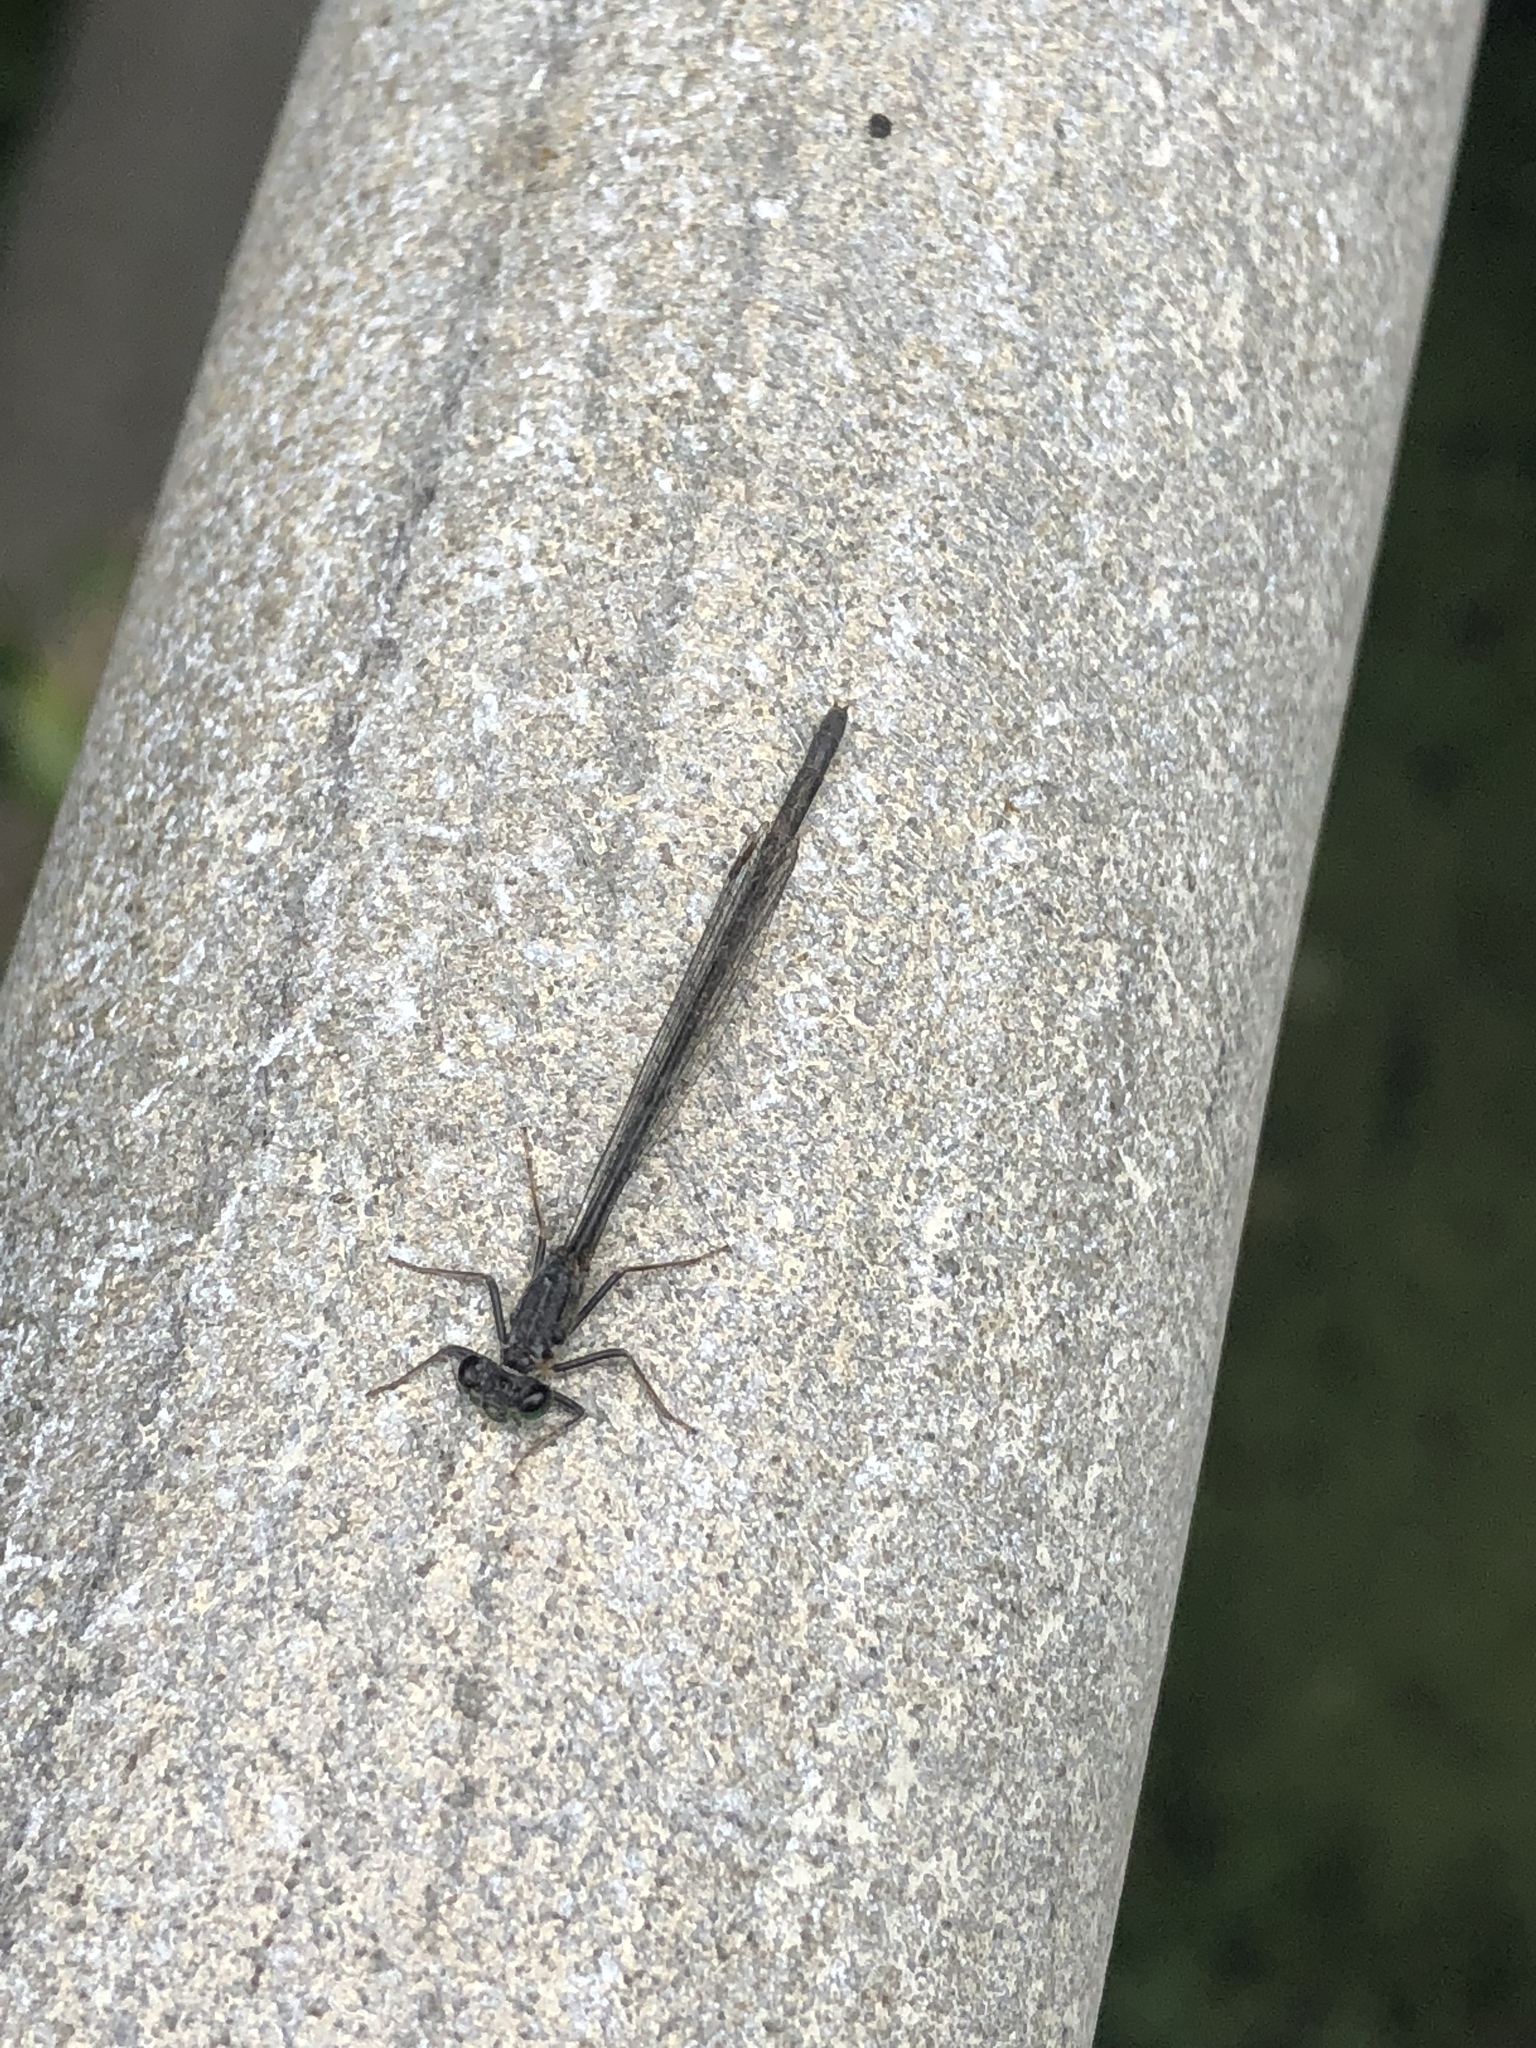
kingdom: Animalia
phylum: Arthropoda
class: Insecta
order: Odonata
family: Coenagrionidae
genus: Ischnura
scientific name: Ischnura cervula
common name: Pacific forktail
